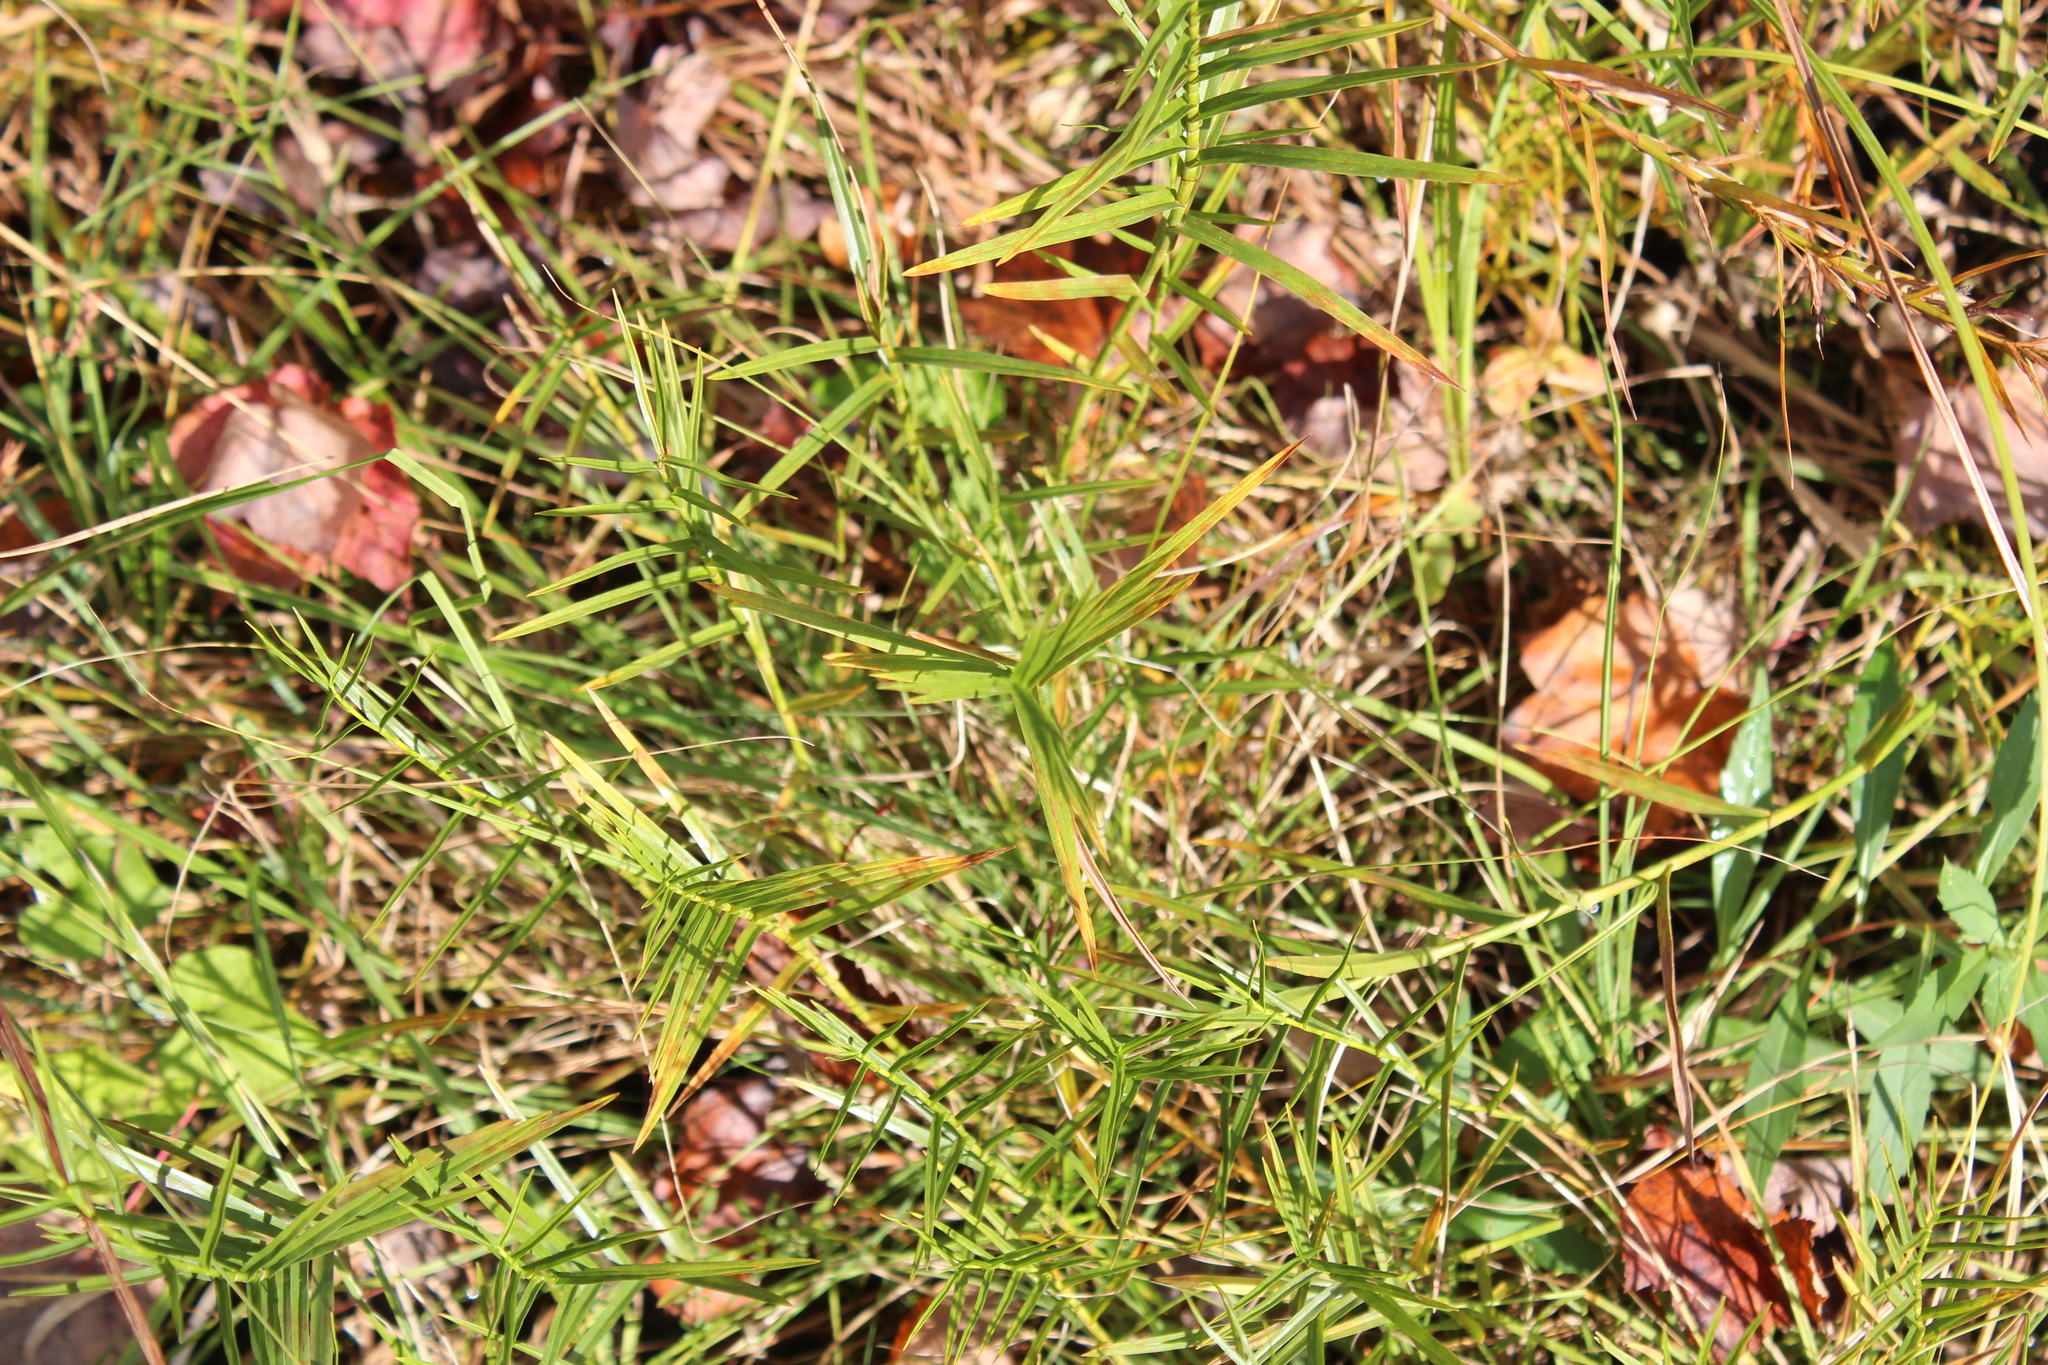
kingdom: Plantae
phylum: Tracheophyta
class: Liliopsida
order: Poales
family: Cyperaceae
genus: Dulichium
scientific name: Dulichium arundinaceum
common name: Three-way sedge
